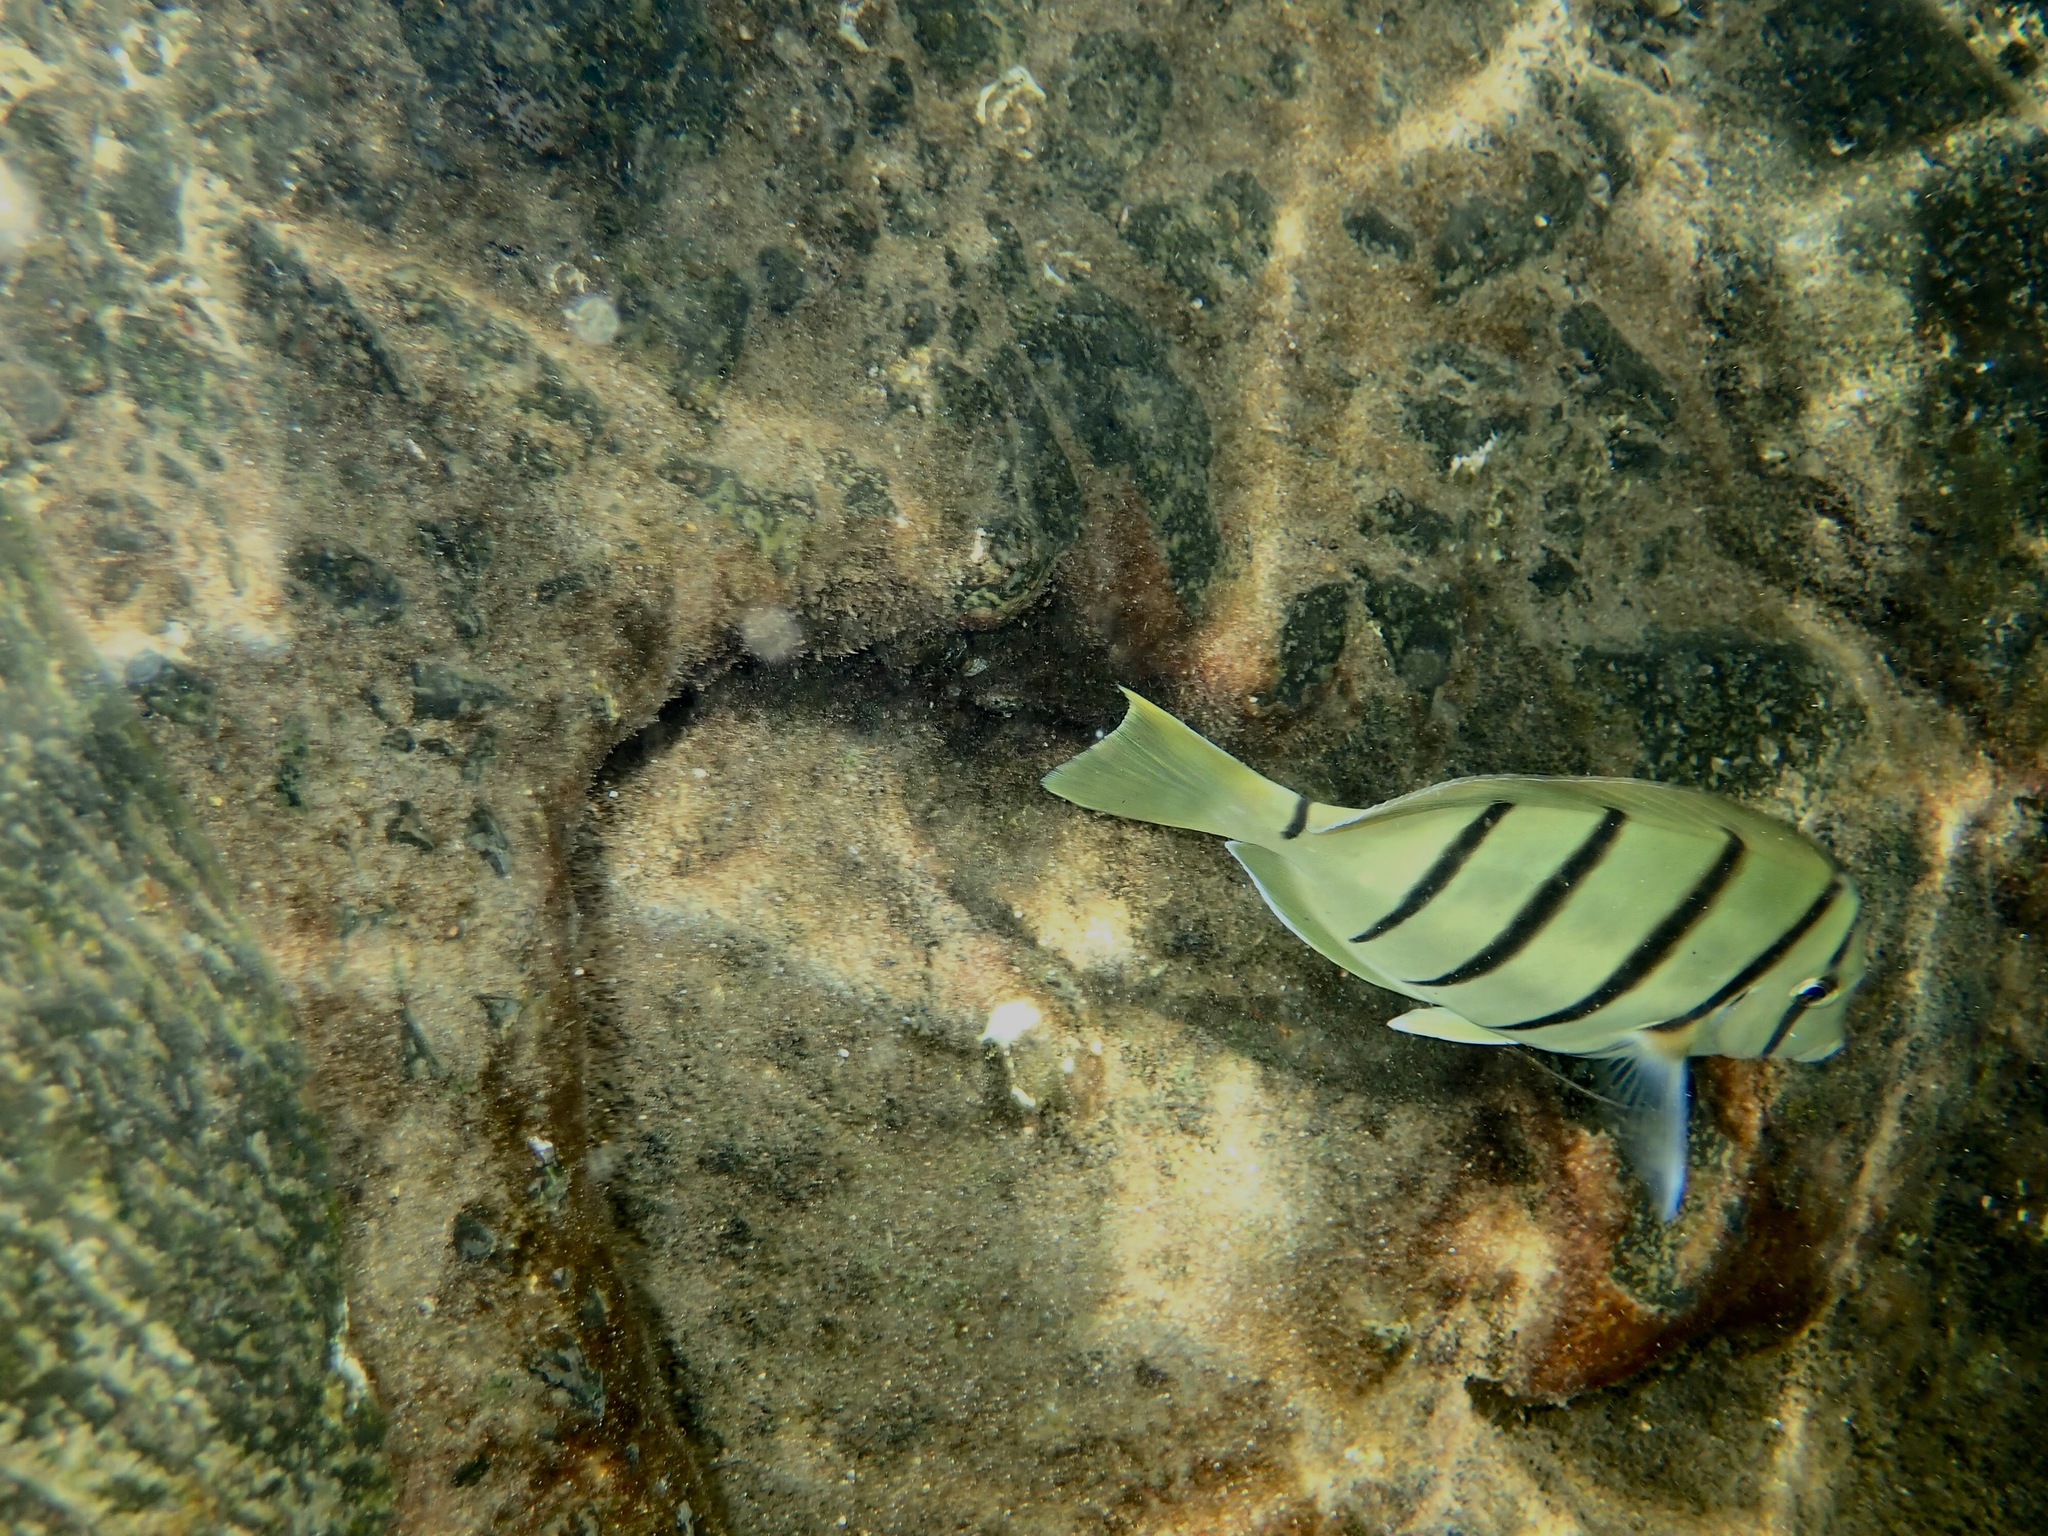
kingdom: Animalia
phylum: Chordata
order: Perciformes
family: Acanthuridae
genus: Acanthurus
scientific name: Acanthurus triostegus
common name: Convict surgeonfish
